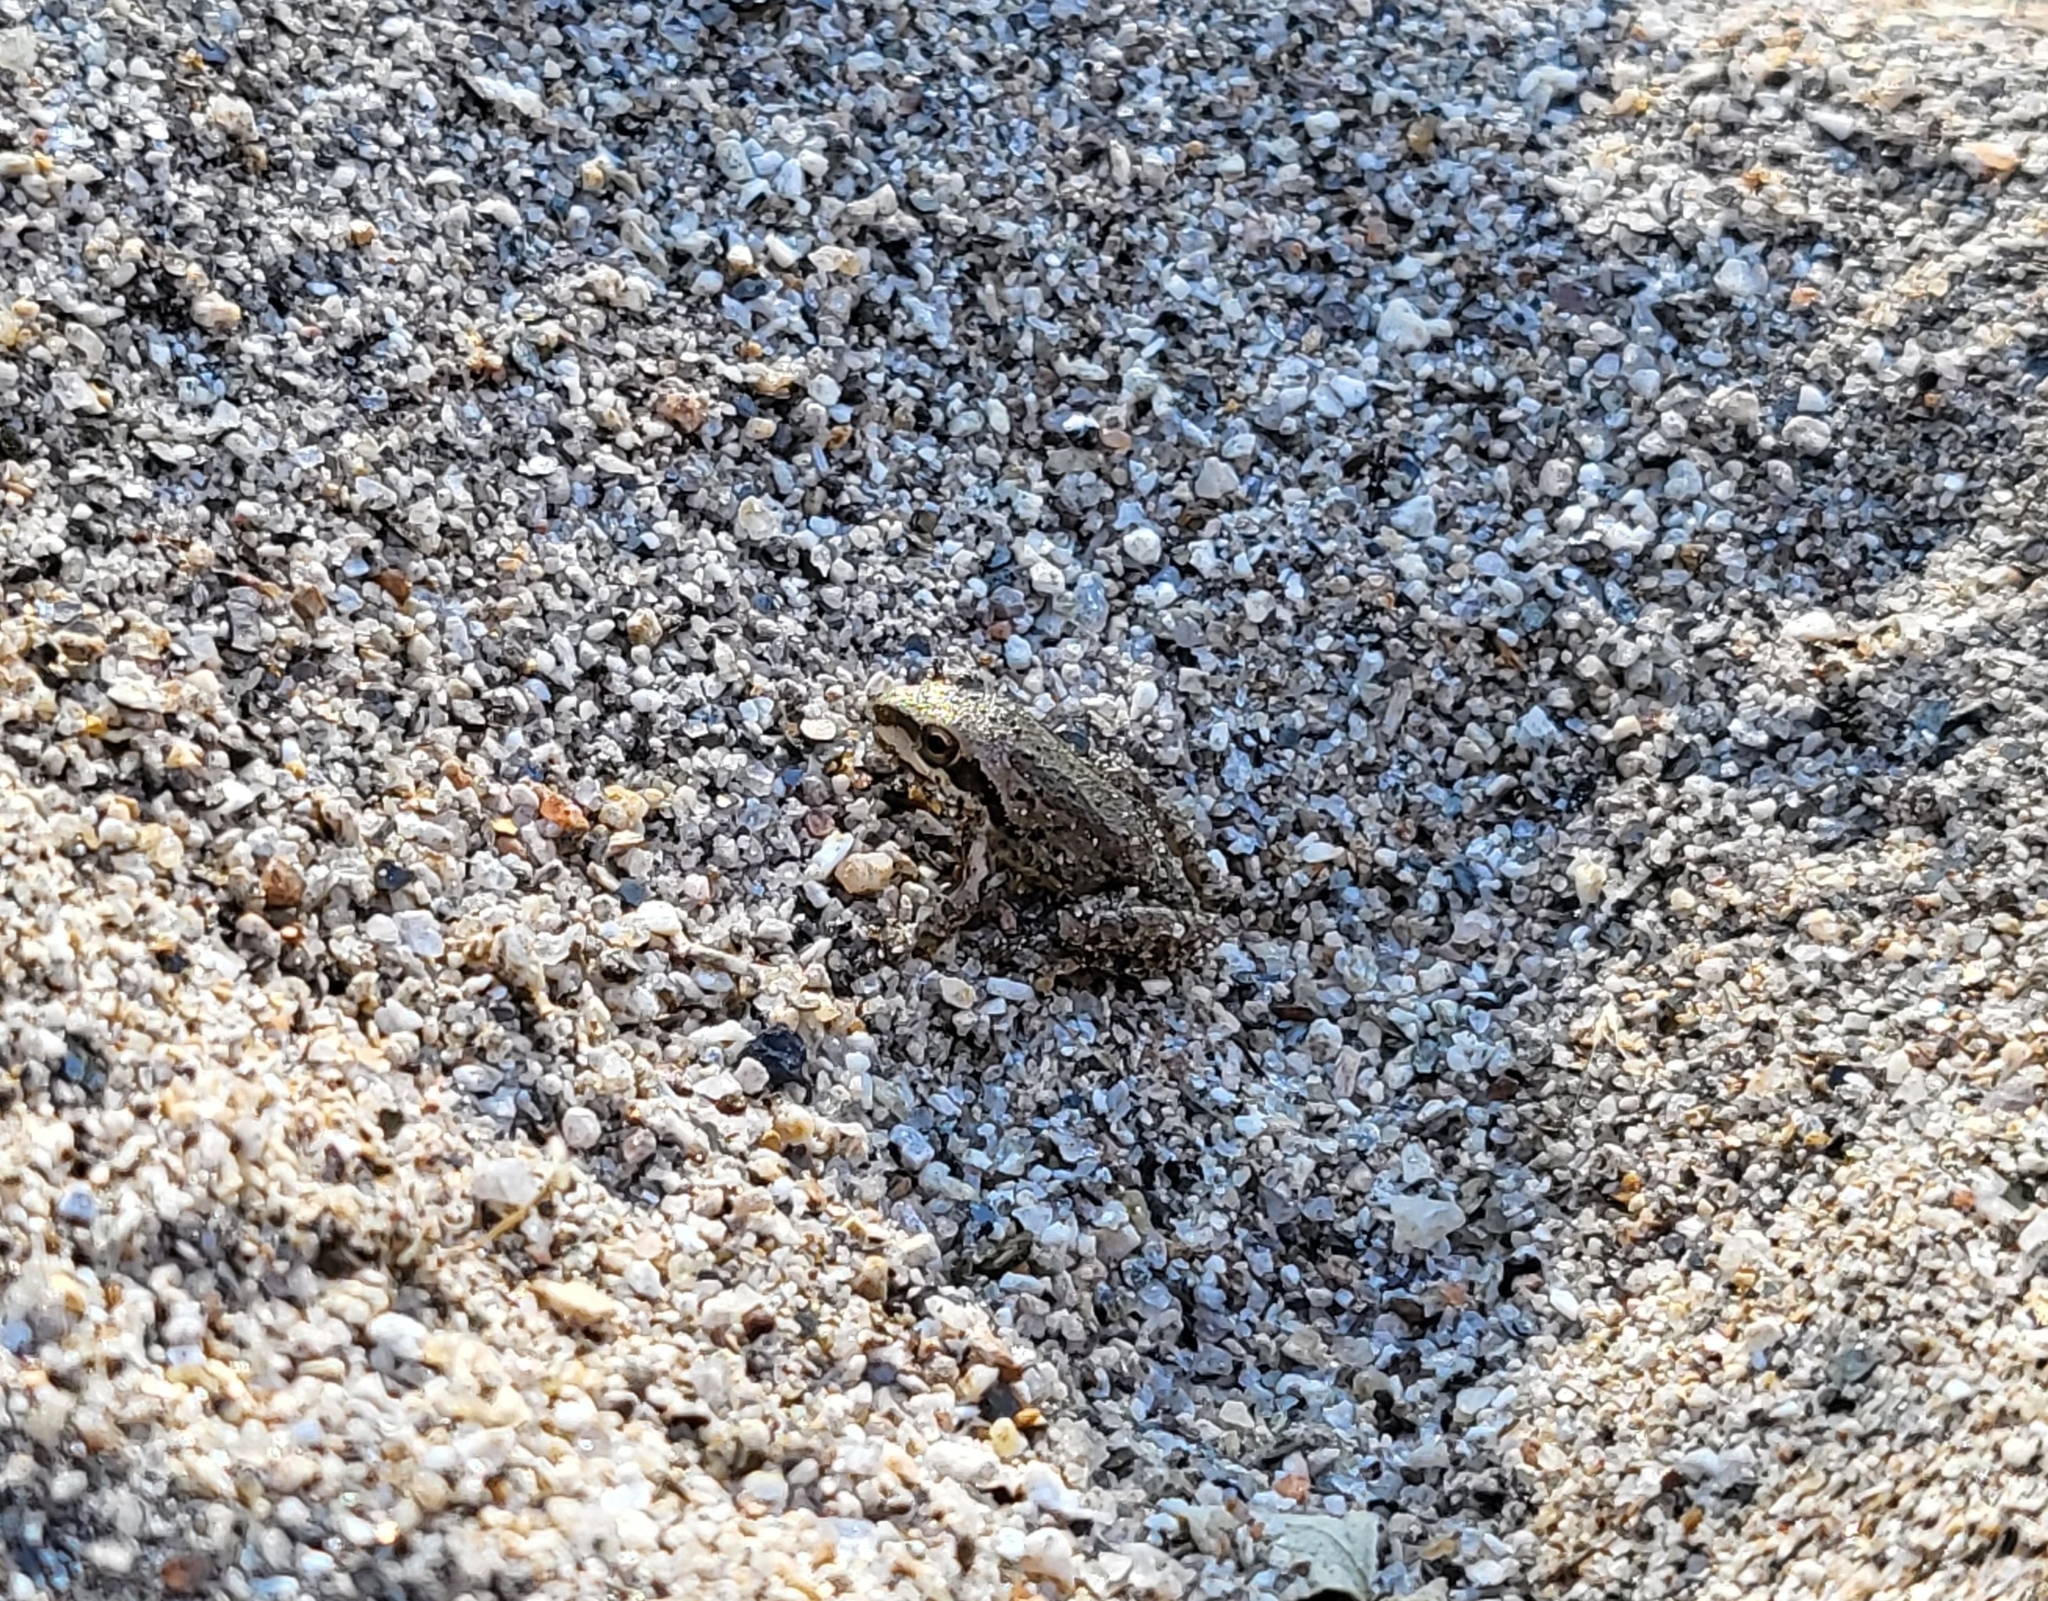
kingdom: Animalia
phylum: Chordata
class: Amphibia
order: Anura
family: Hylidae
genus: Pseudacris
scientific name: Pseudacris regilla
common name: Pacific chorus frog
